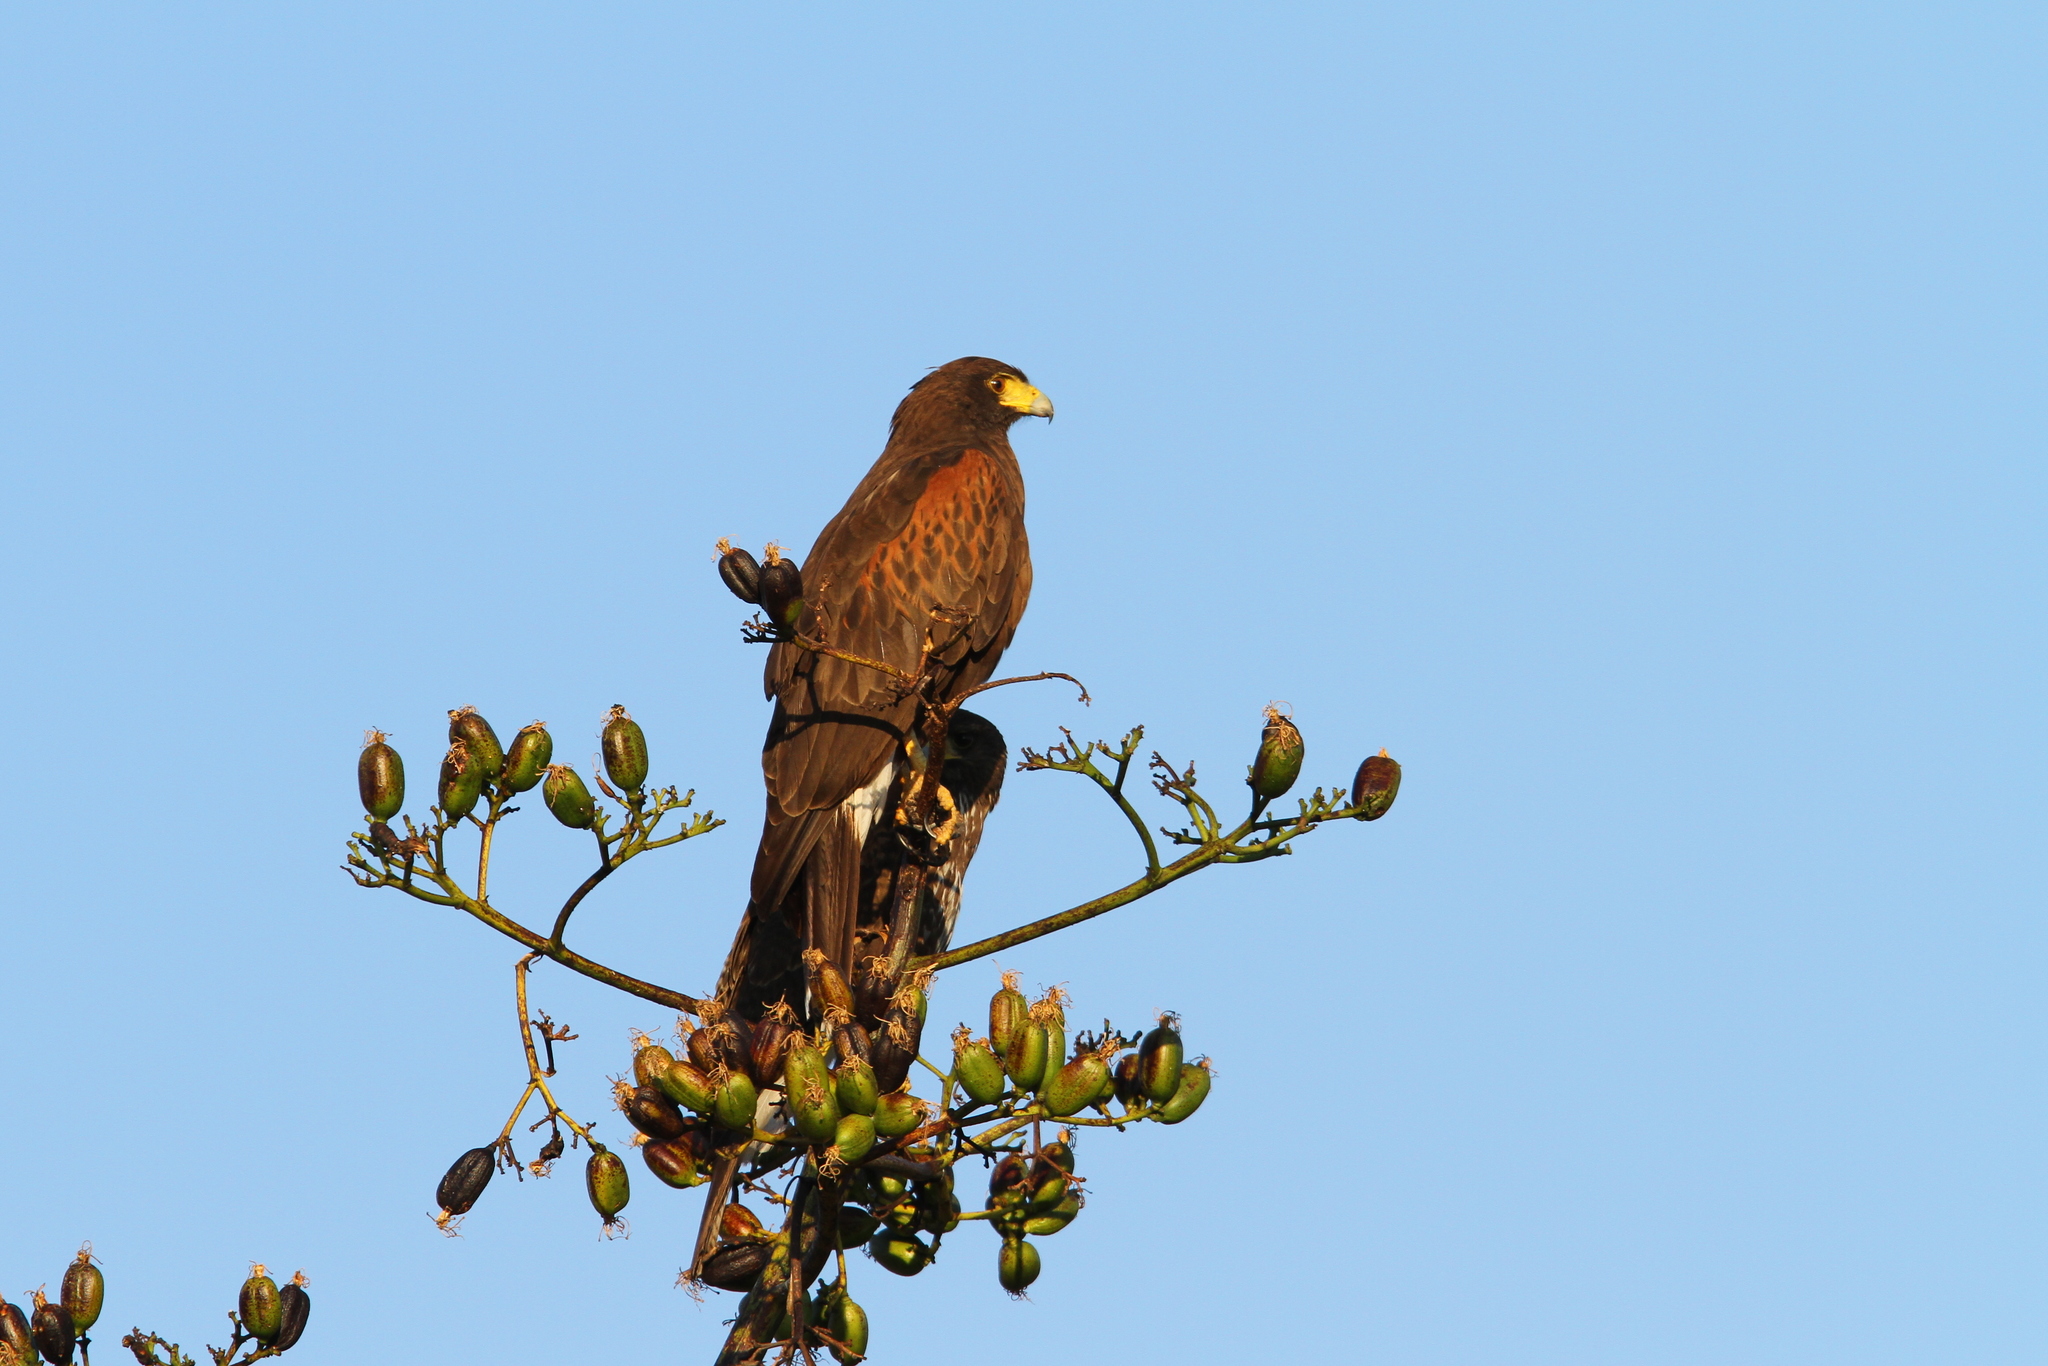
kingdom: Animalia
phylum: Chordata
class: Aves
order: Accipitriformes
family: Accipitridae
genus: Parabuteo
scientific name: Parabuteo unicinctus
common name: Harris's hawk
